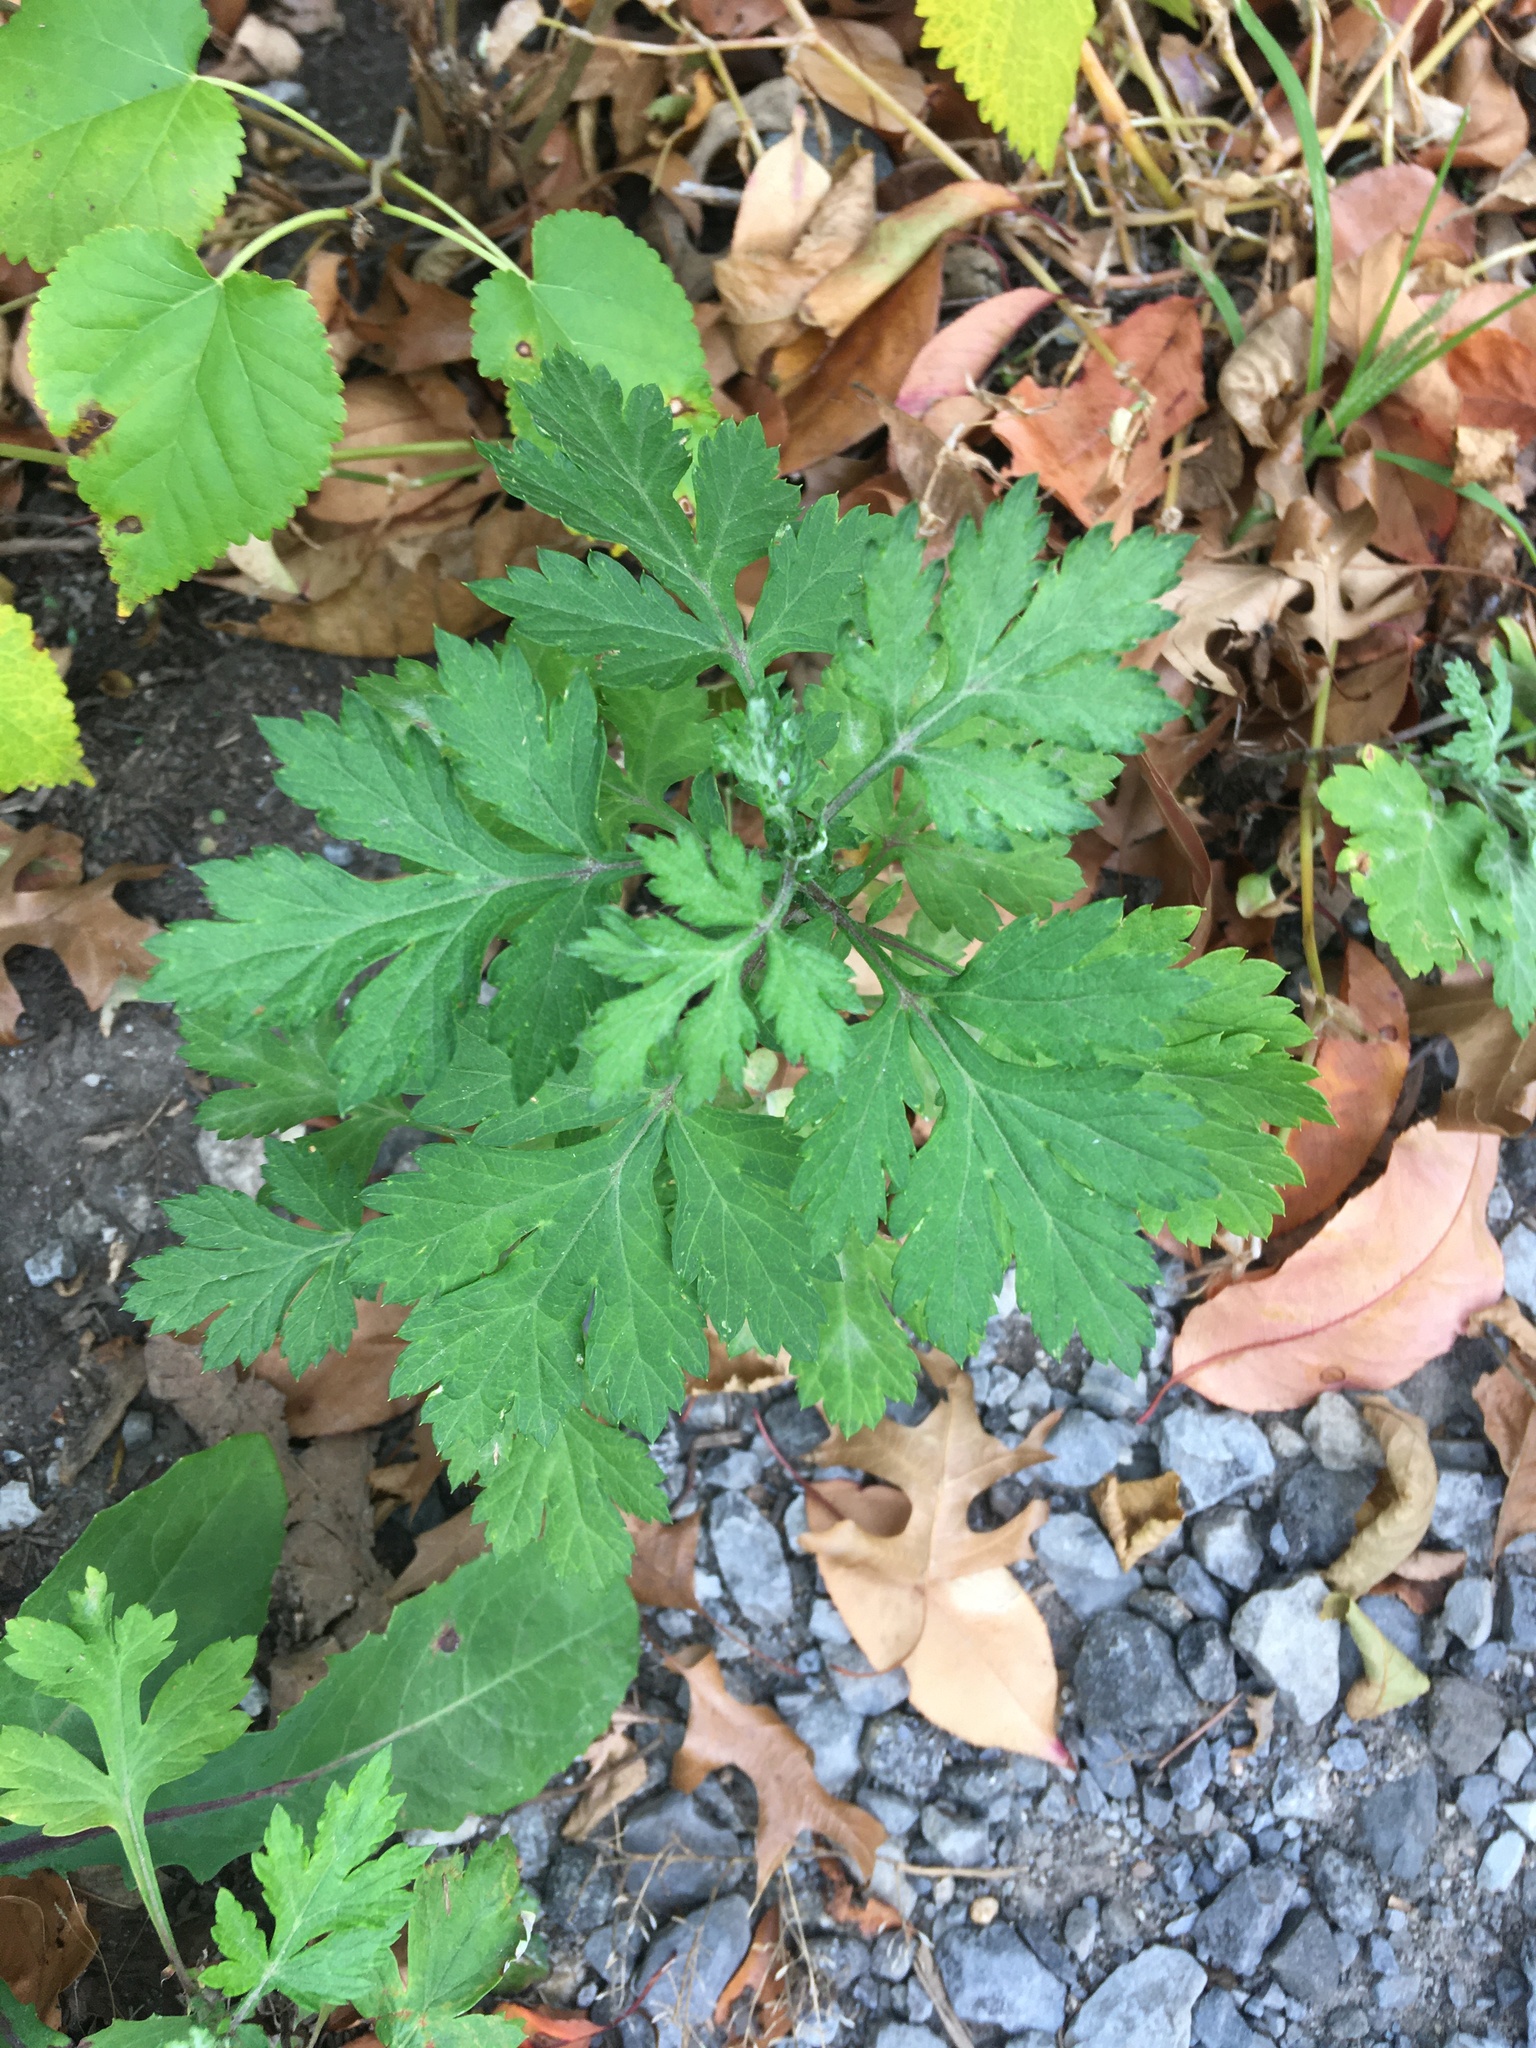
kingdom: Plantae
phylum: Tracheophyta
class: Magnoliopsida
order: Asterales
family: Asteraceae
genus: Artemisia
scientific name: Artemisia vulgaris
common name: Mugwort
